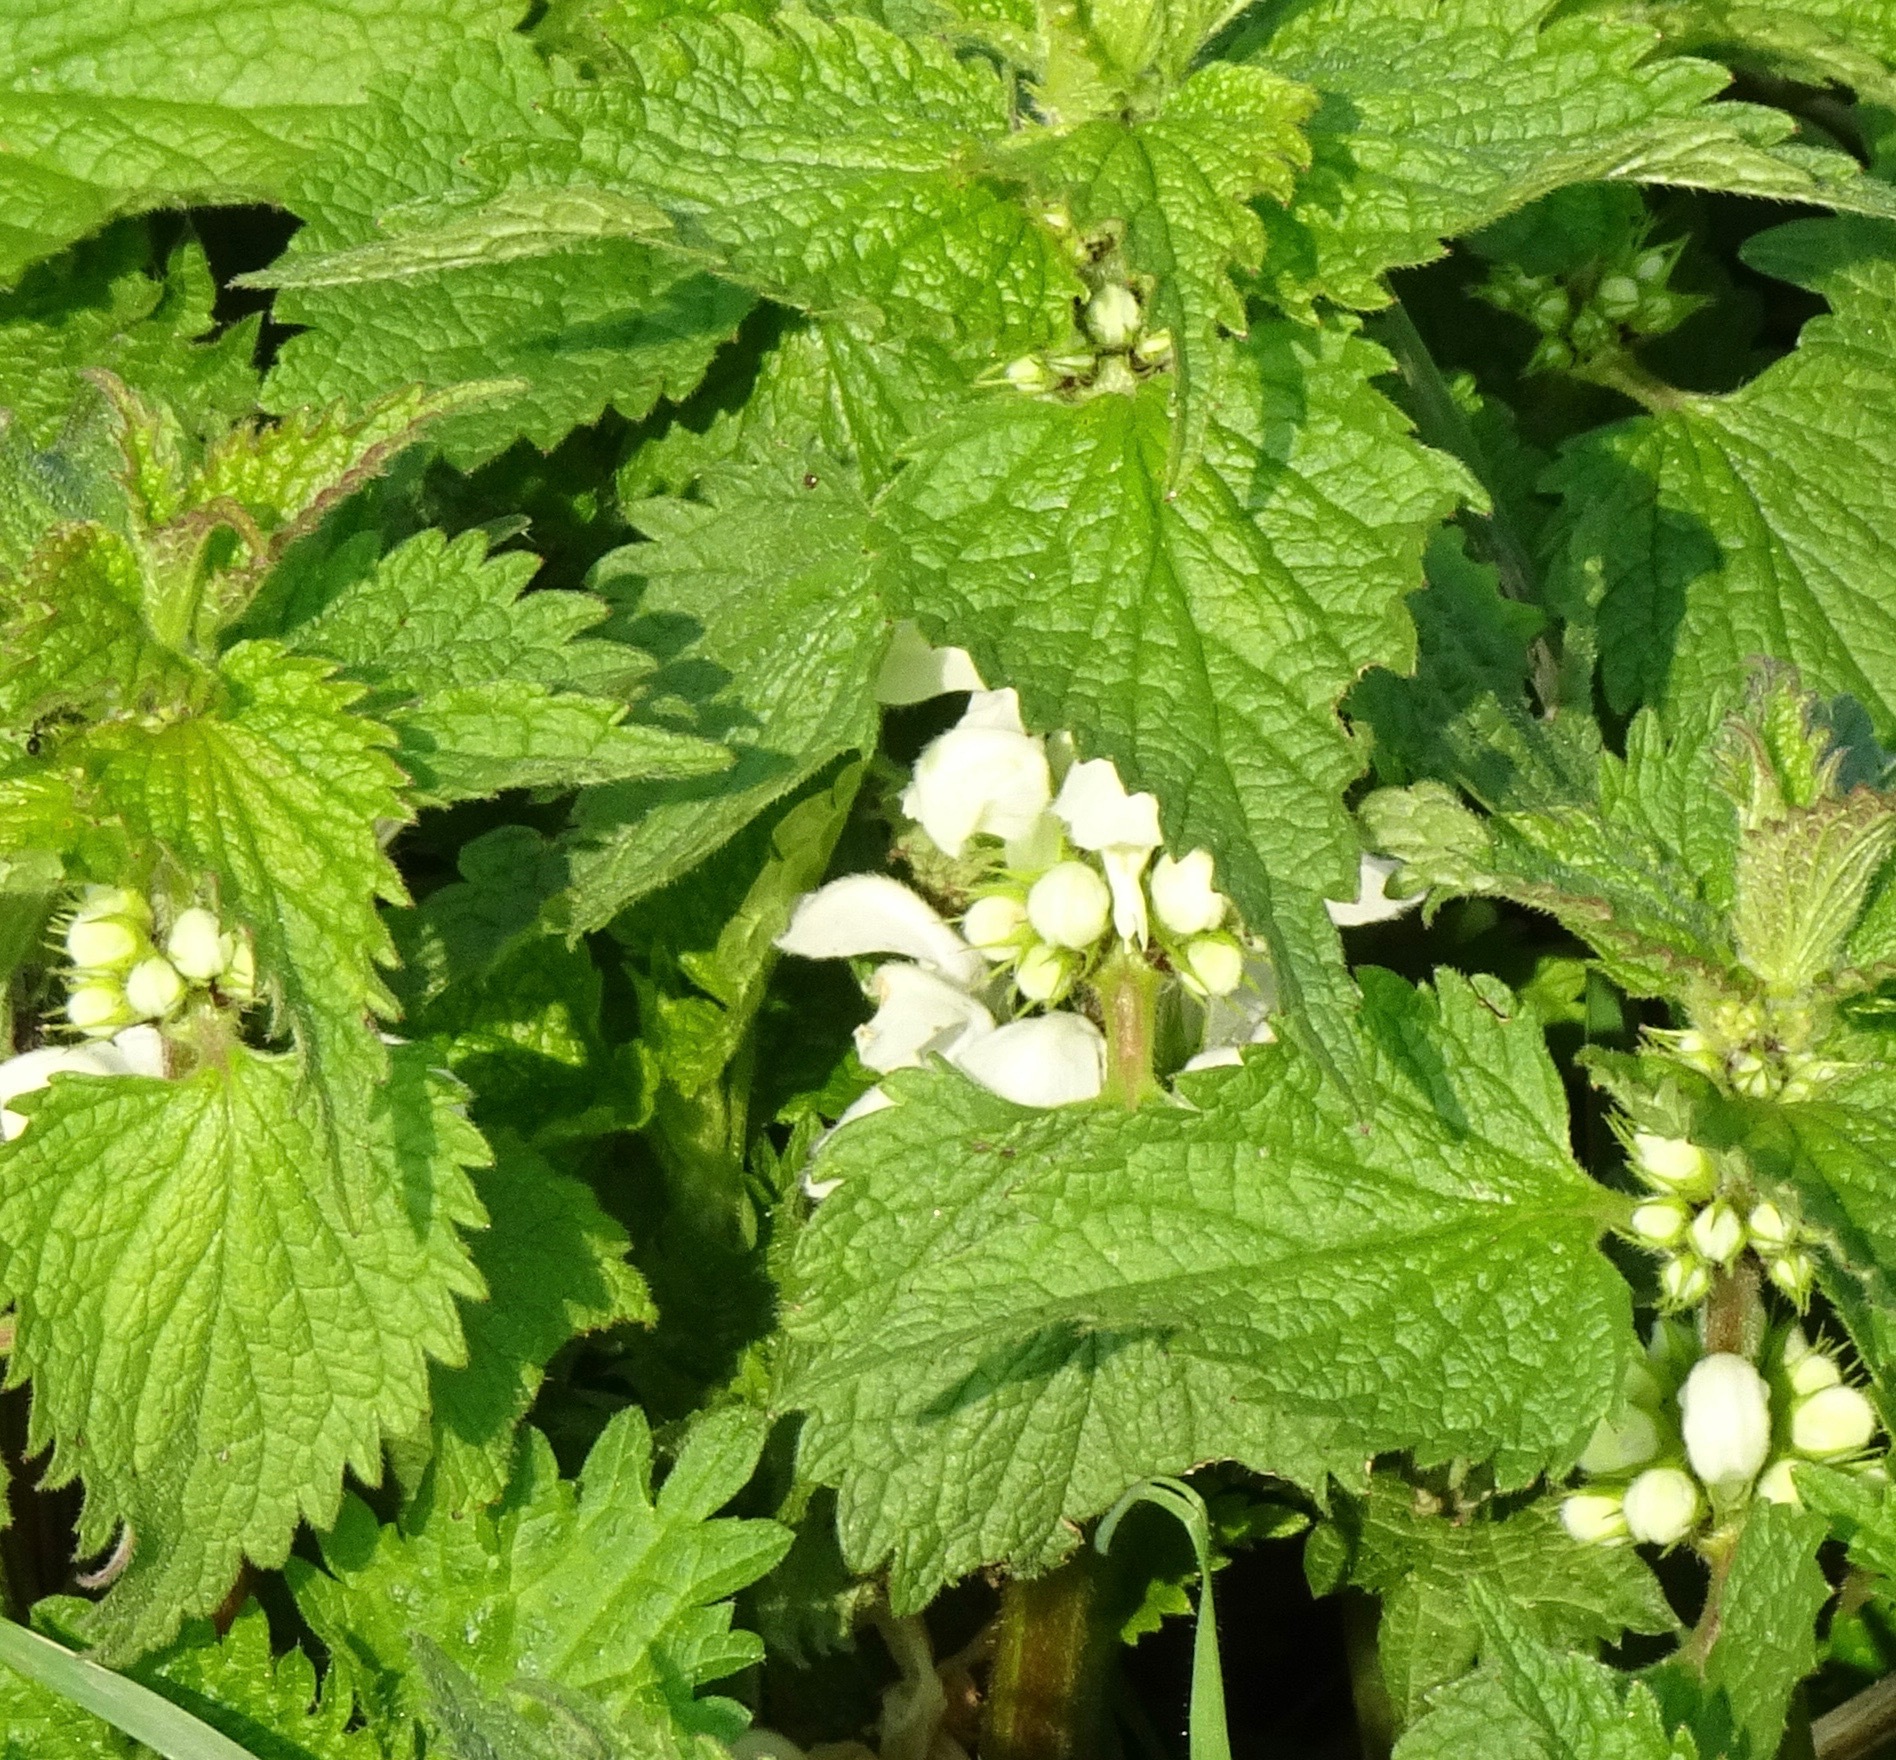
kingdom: Plantae
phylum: Tracheophyta
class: Magnoliopsida
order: Lamiales
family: Lamiaceae
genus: Lamium
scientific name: Lamium album
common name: White dead-nettle
